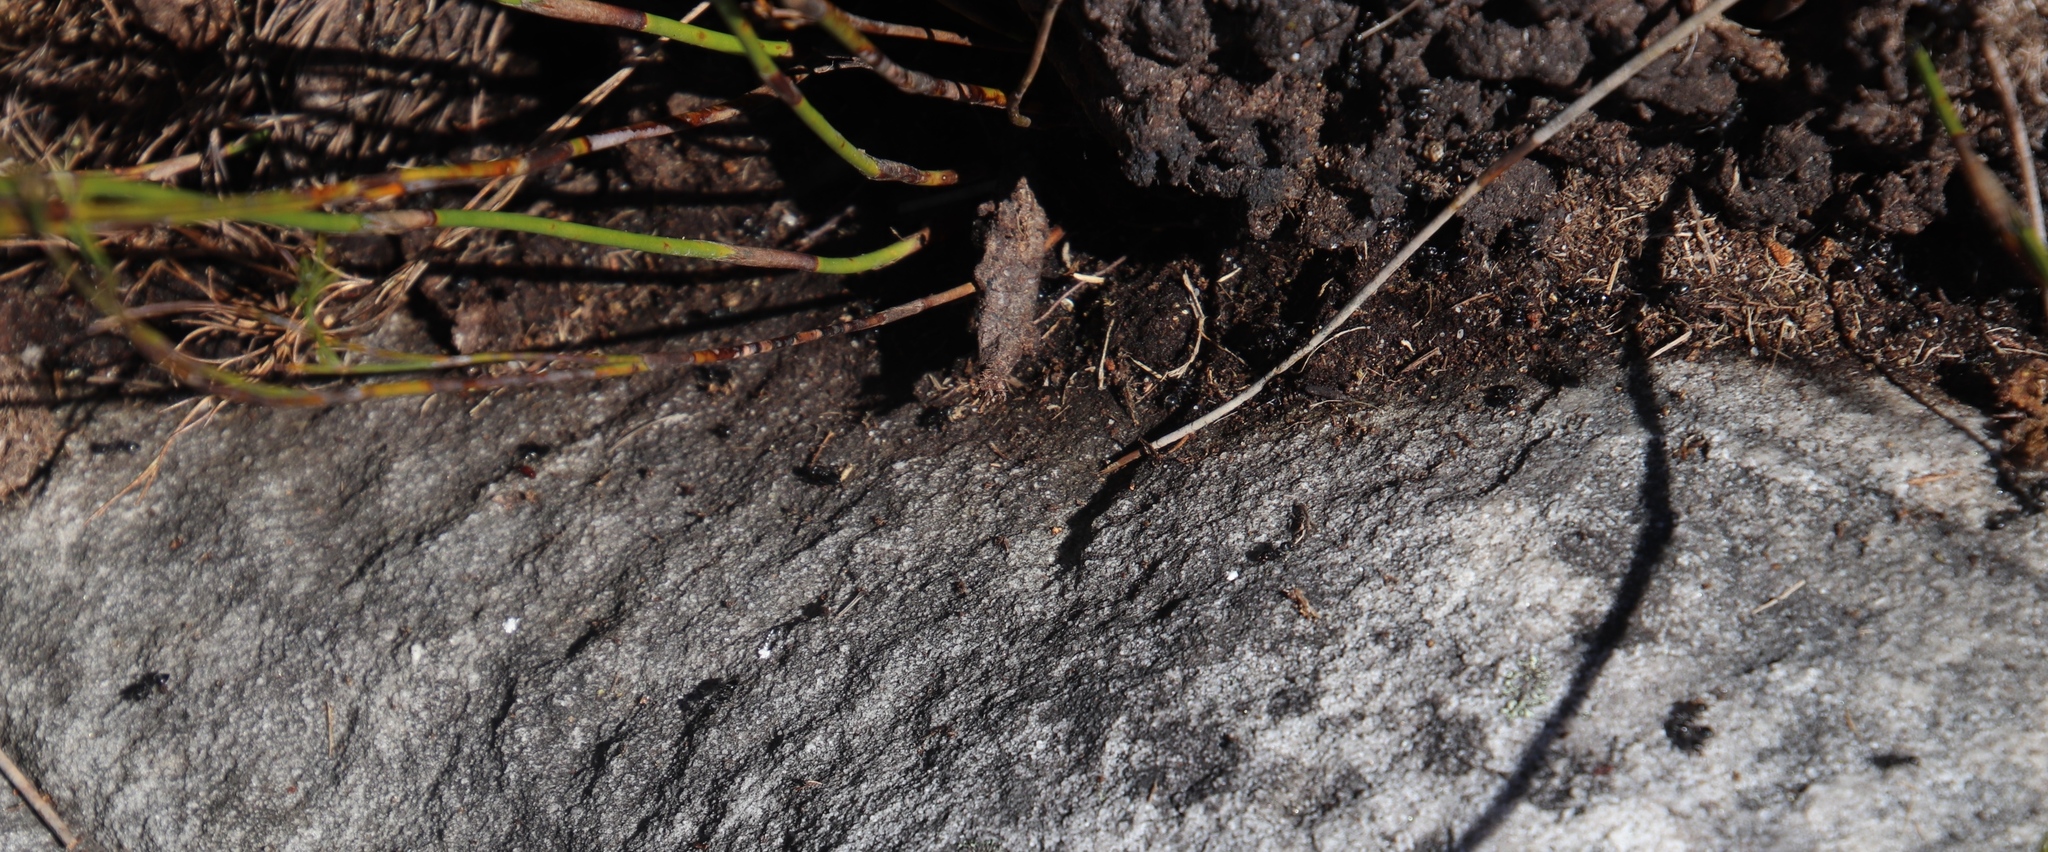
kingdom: Animalia
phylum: Arthropoda
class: Insecta
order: Hymenoptera
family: Formicidae
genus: Crematogaster
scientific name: Crematogaster peringueyi
